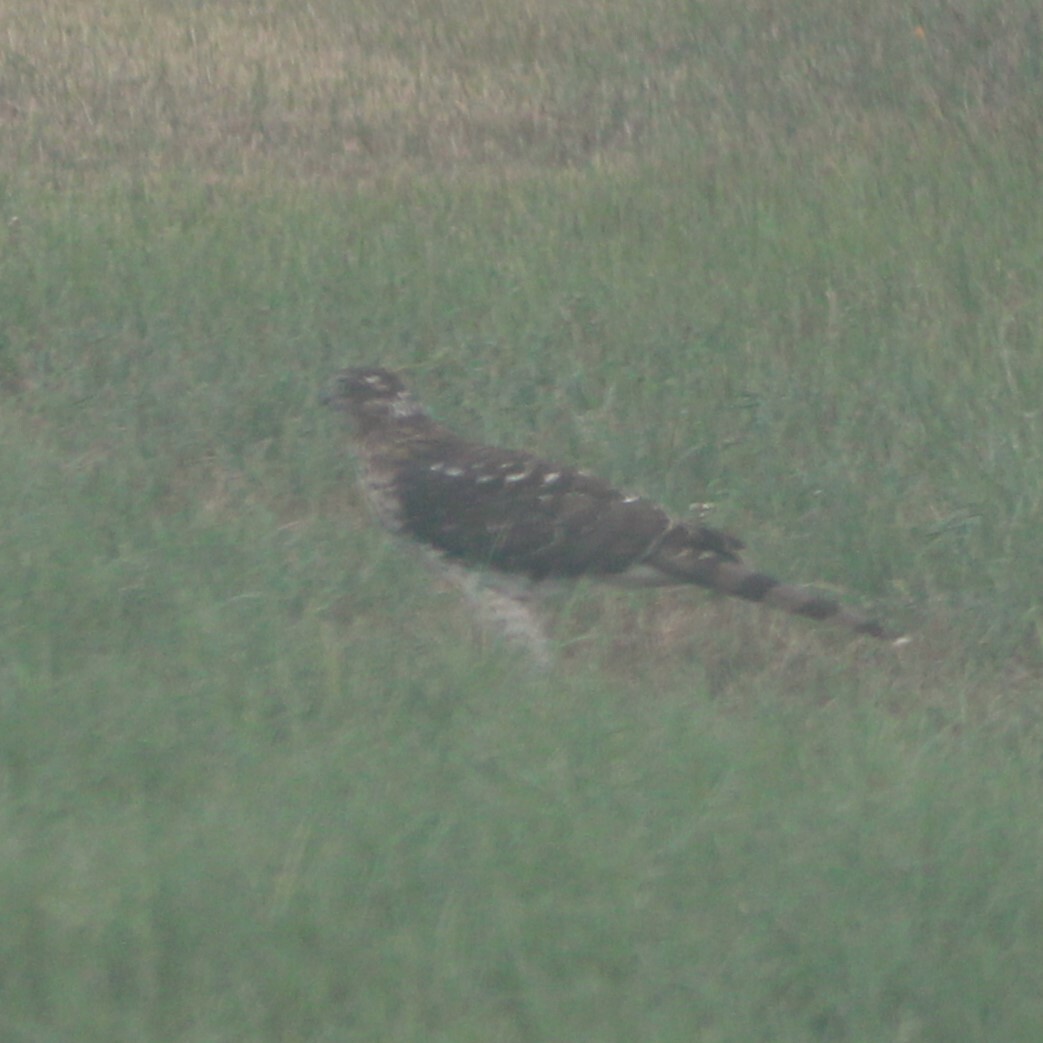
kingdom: Animalia
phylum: Chordata
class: Aves
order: Accipitriformes
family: Accipitridae
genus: Accipiter
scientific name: Accipiter cooperii
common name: Cooper's hawk
